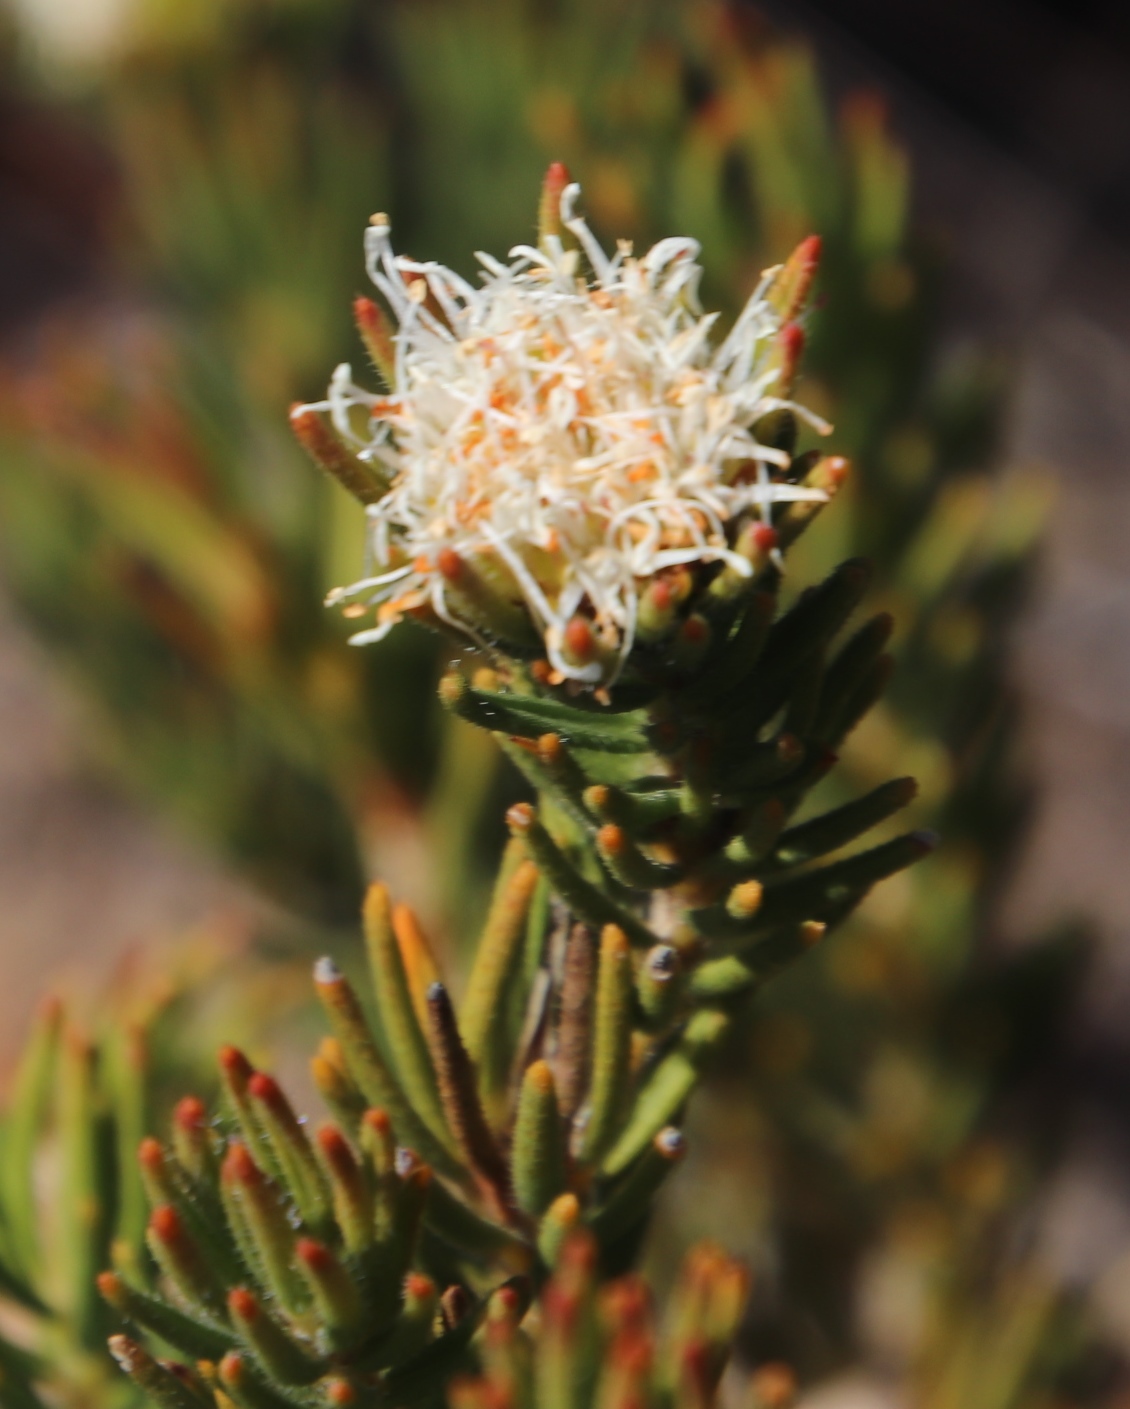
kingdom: Plantae
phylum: Tracheophyta
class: Magnoliopsida
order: Sapindales
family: Rutaceae
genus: Agathosma
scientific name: Agathosma hookeri
